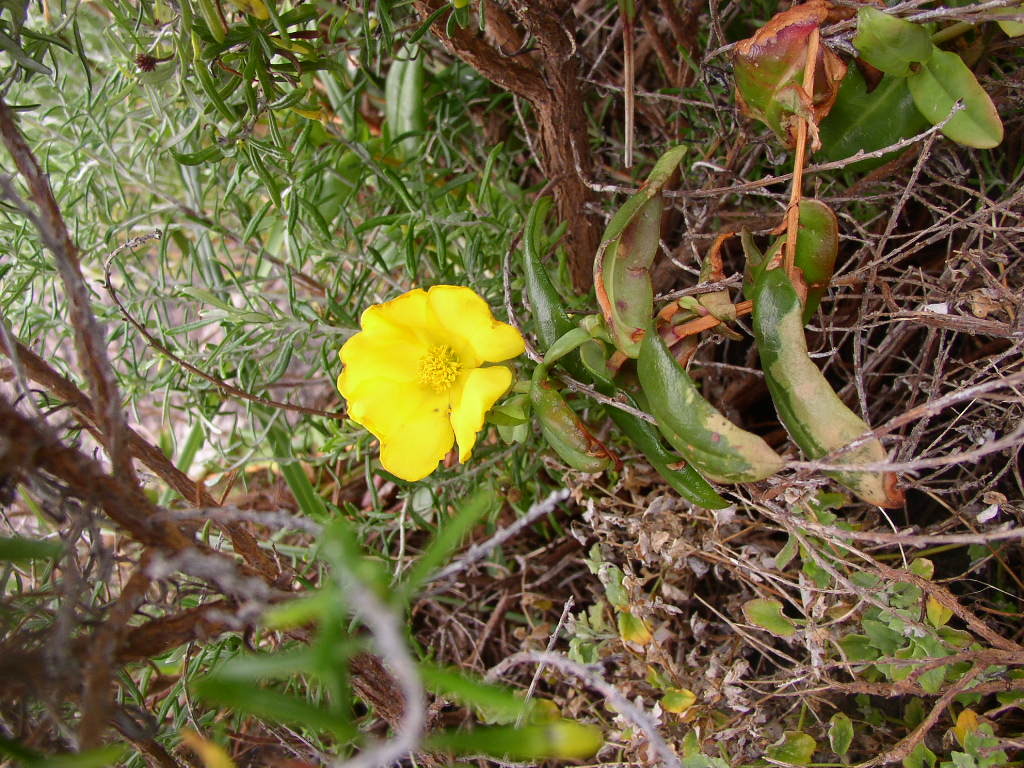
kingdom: Plantae
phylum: Tracheophyta
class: Magnoliopsida
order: Dilleniales
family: Dilleniaceae
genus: Hibbertia
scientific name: Hibbertia cunninghamii
